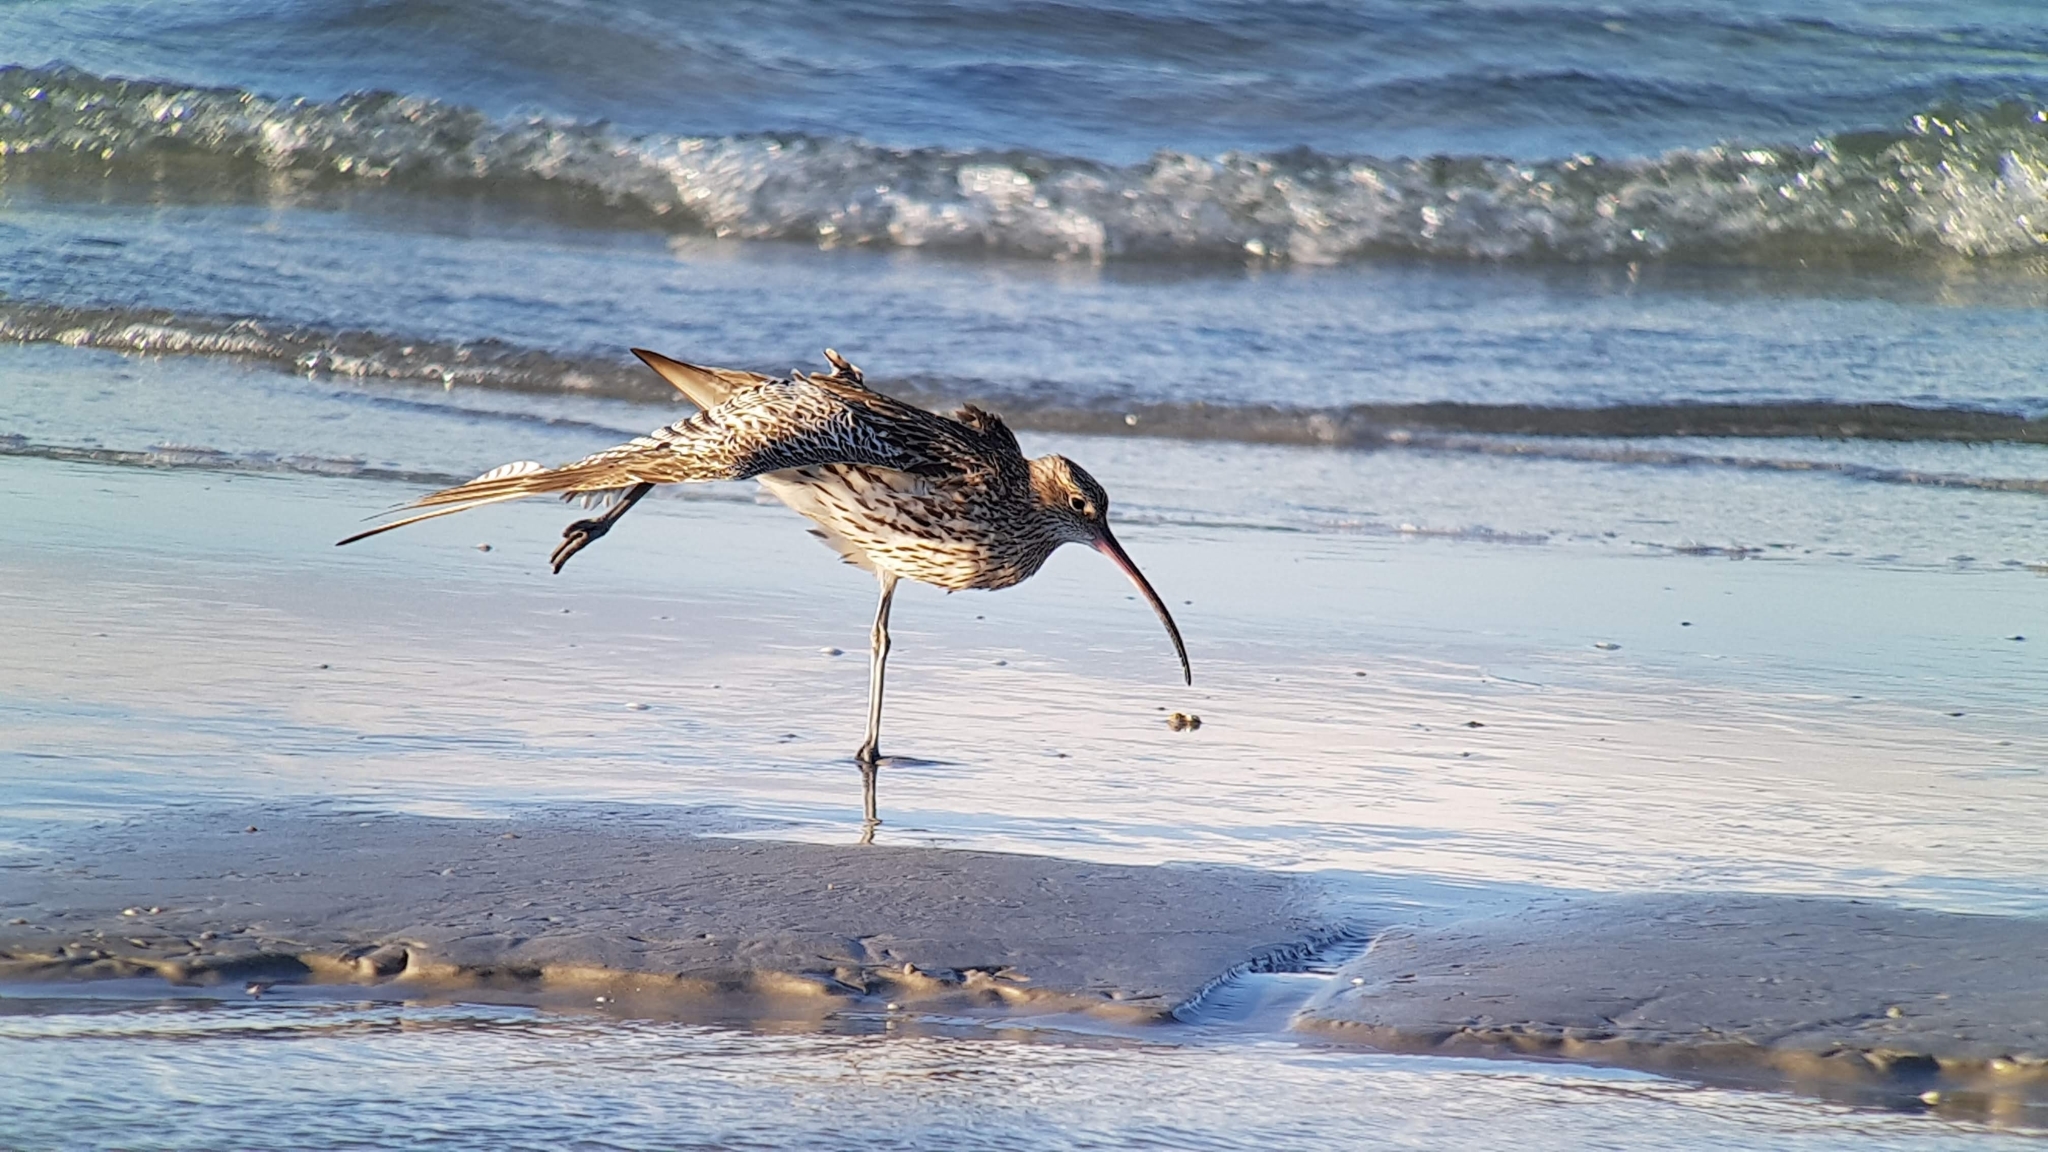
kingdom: Animalia
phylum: Chordata
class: Aves
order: Charadriiformes
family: Scolopacidae
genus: Numenius
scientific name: Numenius arquata
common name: Eurasian curlew
